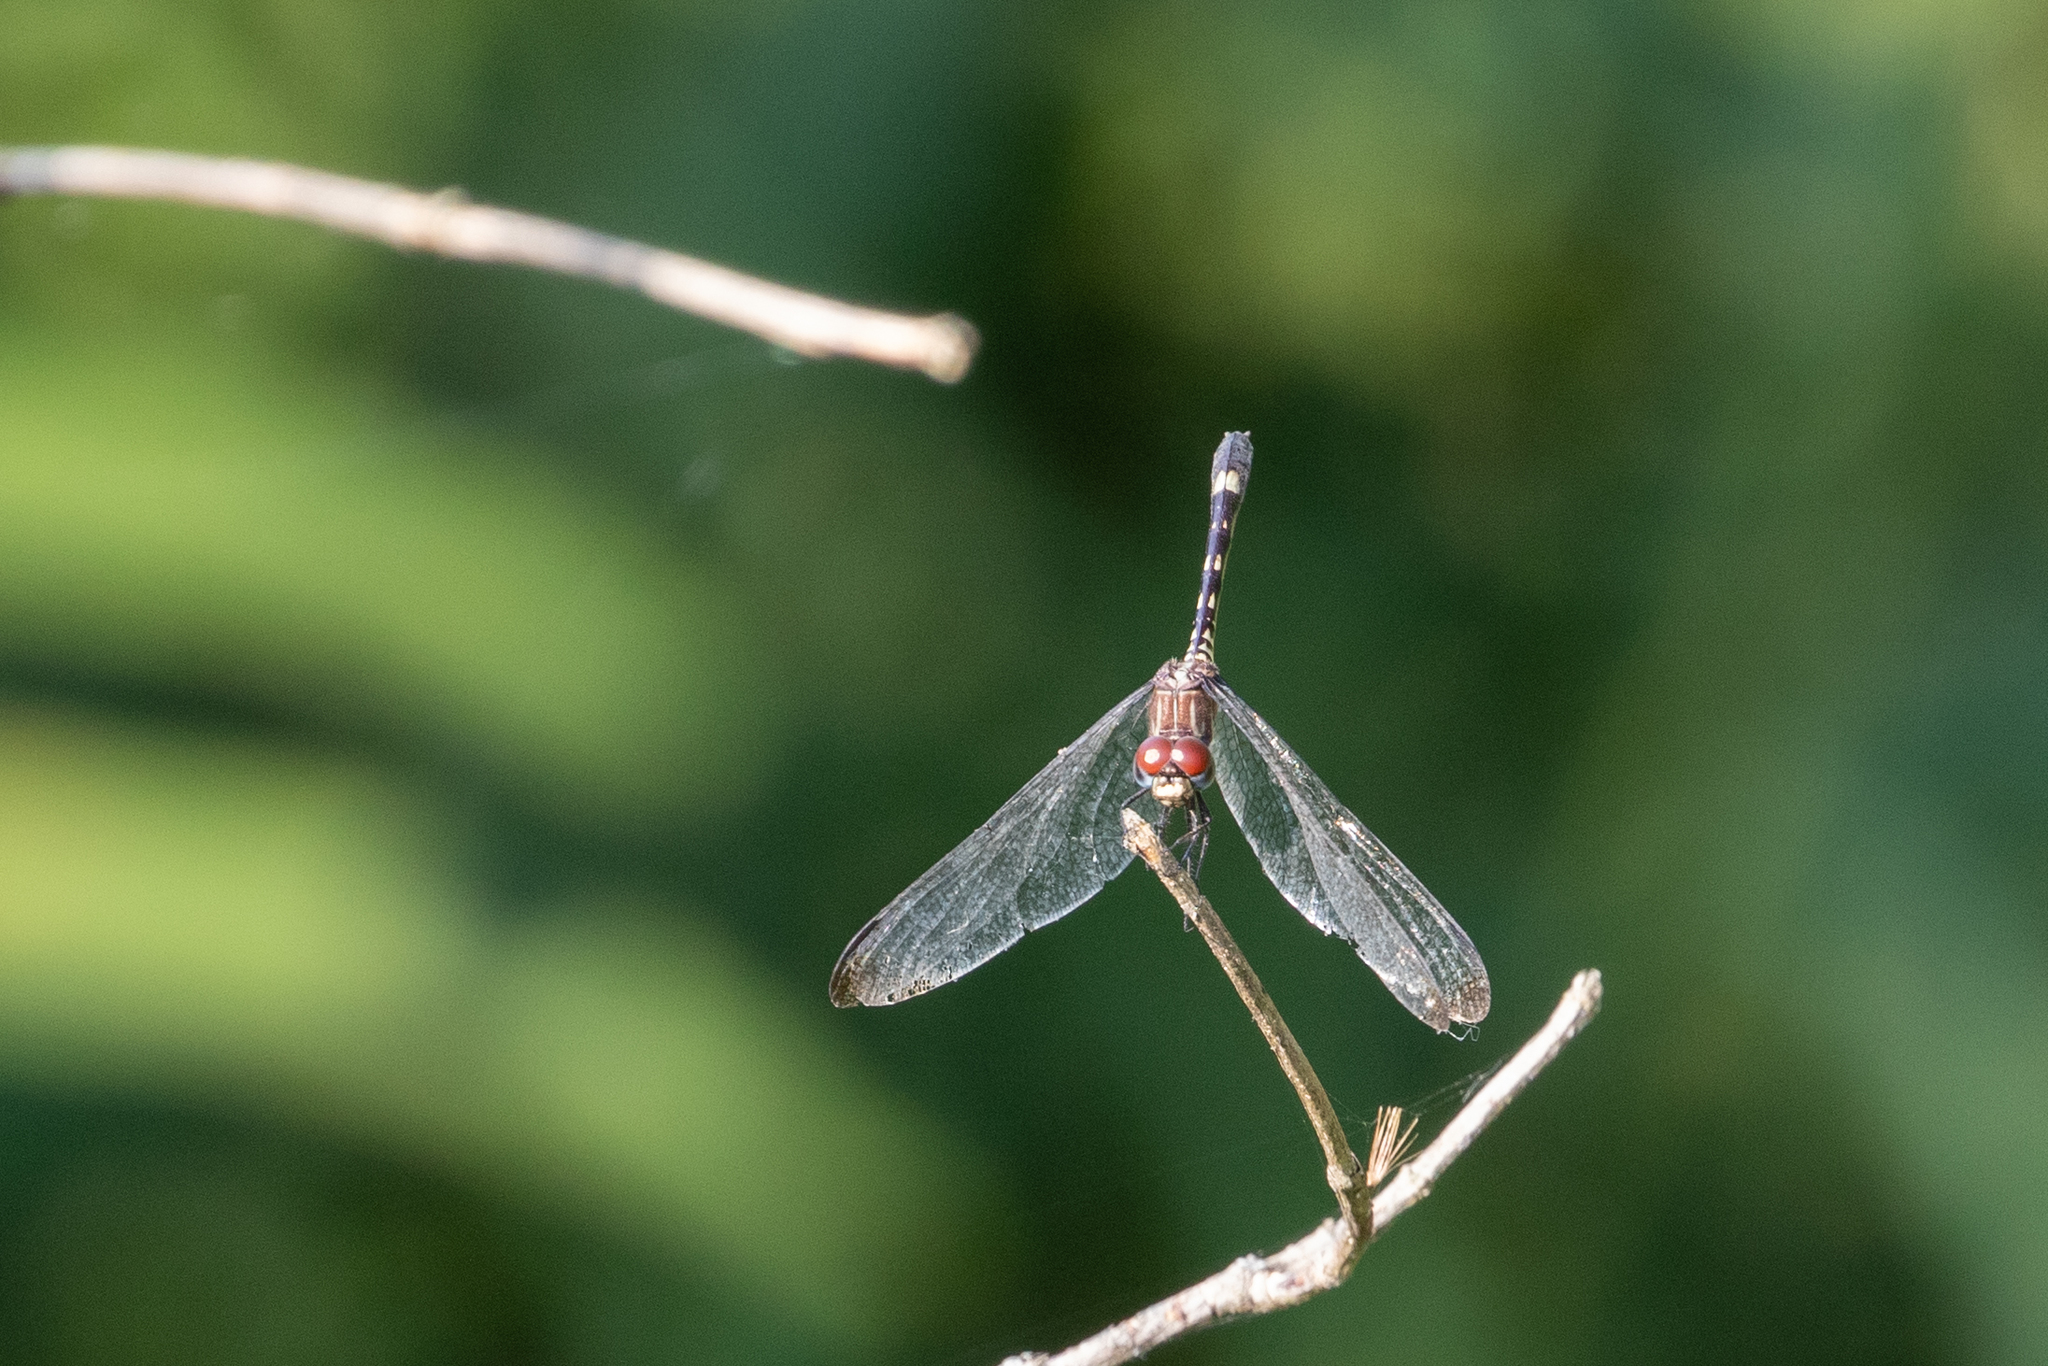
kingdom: Animalia
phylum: Arthropoda
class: Insecta
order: Odonata
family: Libellulidae
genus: Dythemis
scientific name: Dythemis velox
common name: Swift setwing
